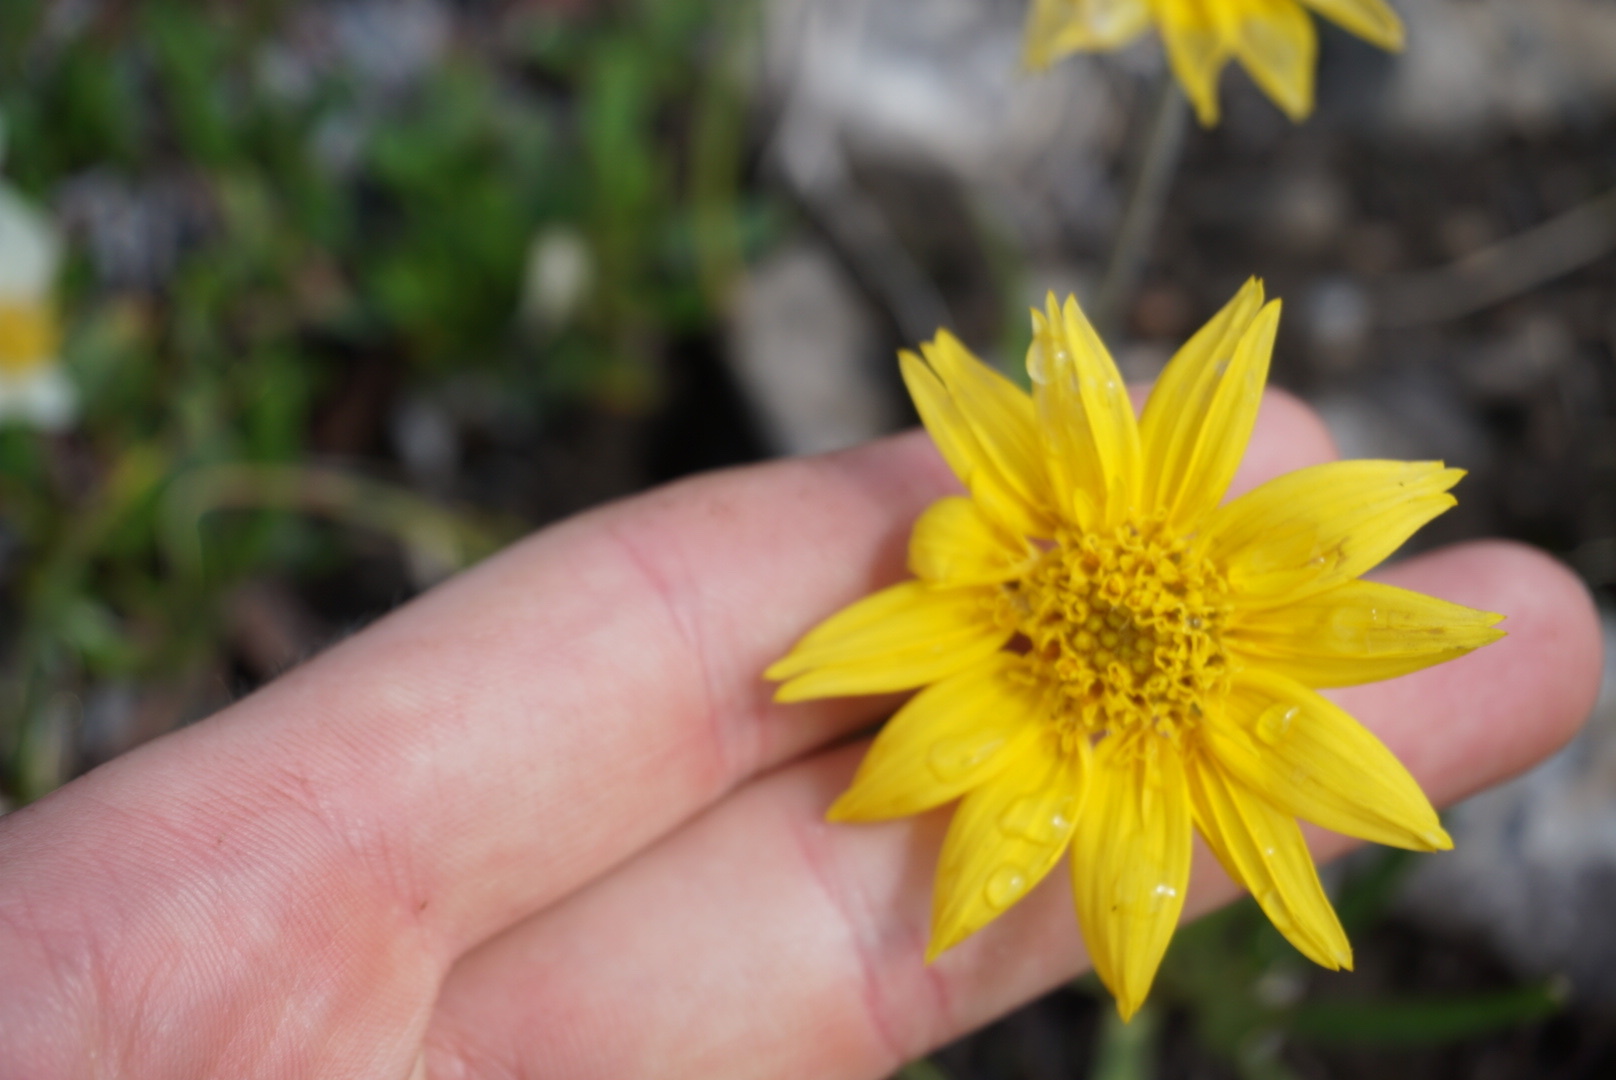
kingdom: Plantae
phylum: Tracheophyta
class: Magnoliopsida
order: Asterales
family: Asteraceae
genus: Arnica
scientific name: Arnica angustifolia
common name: Arctic arnica
